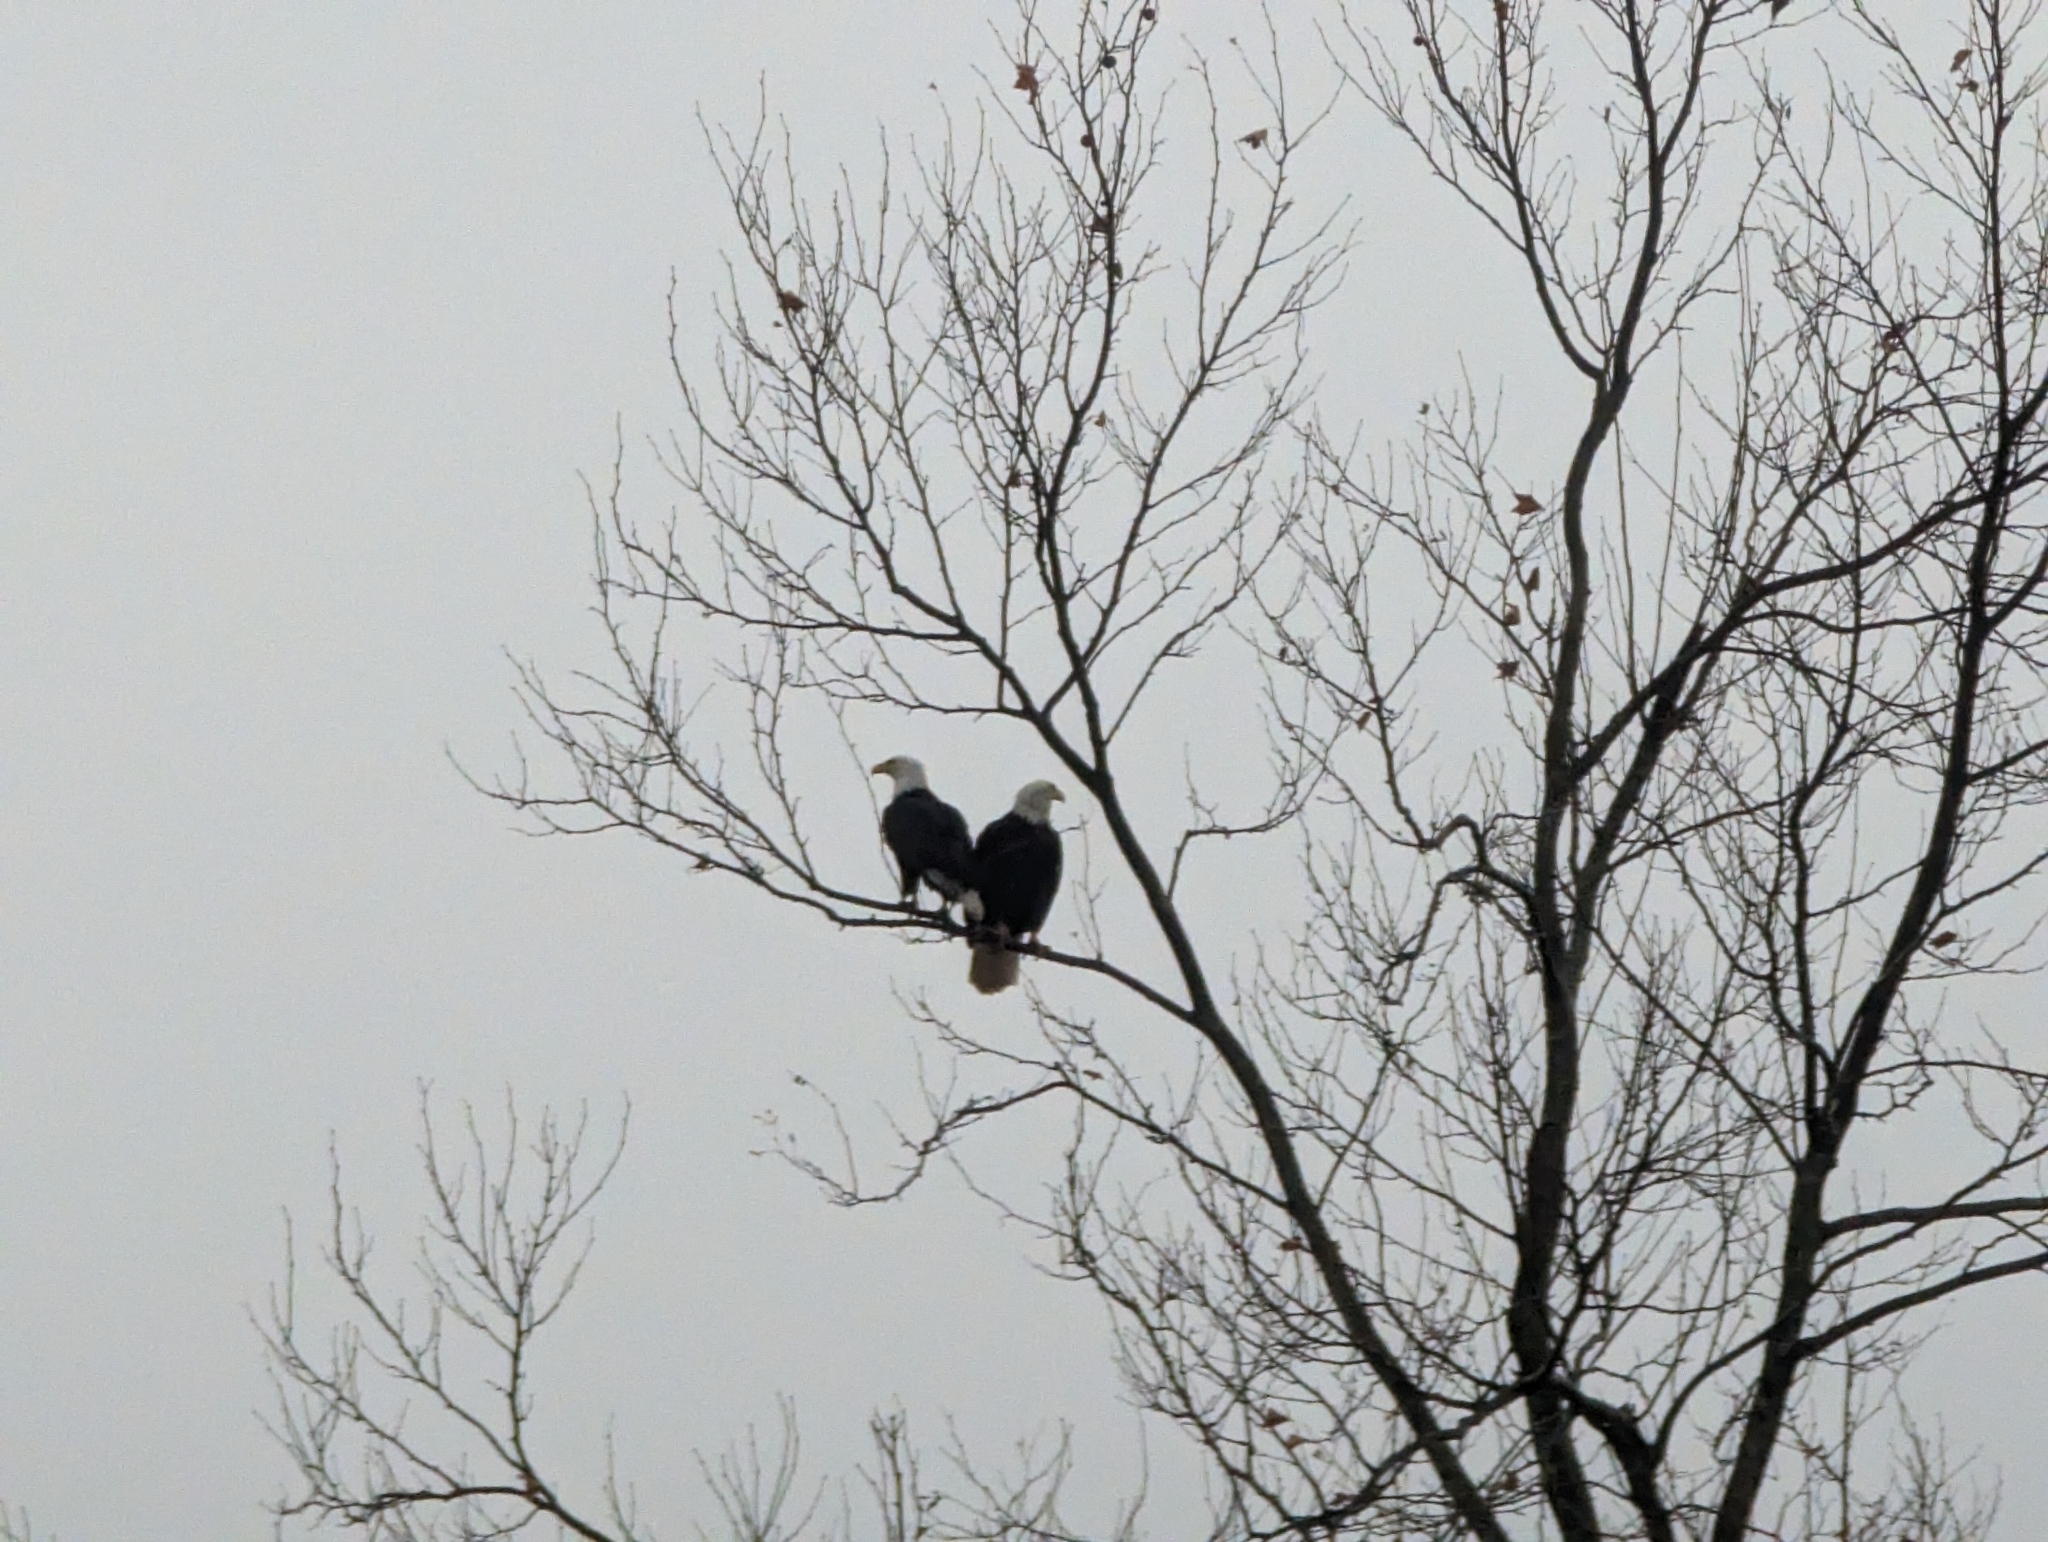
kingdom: Animalia
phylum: Chordata
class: Aves
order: Accipitriformes
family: Accipitridae
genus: Haliaeetus
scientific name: Haliaeetus leucocephalus
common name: Bald eagle
